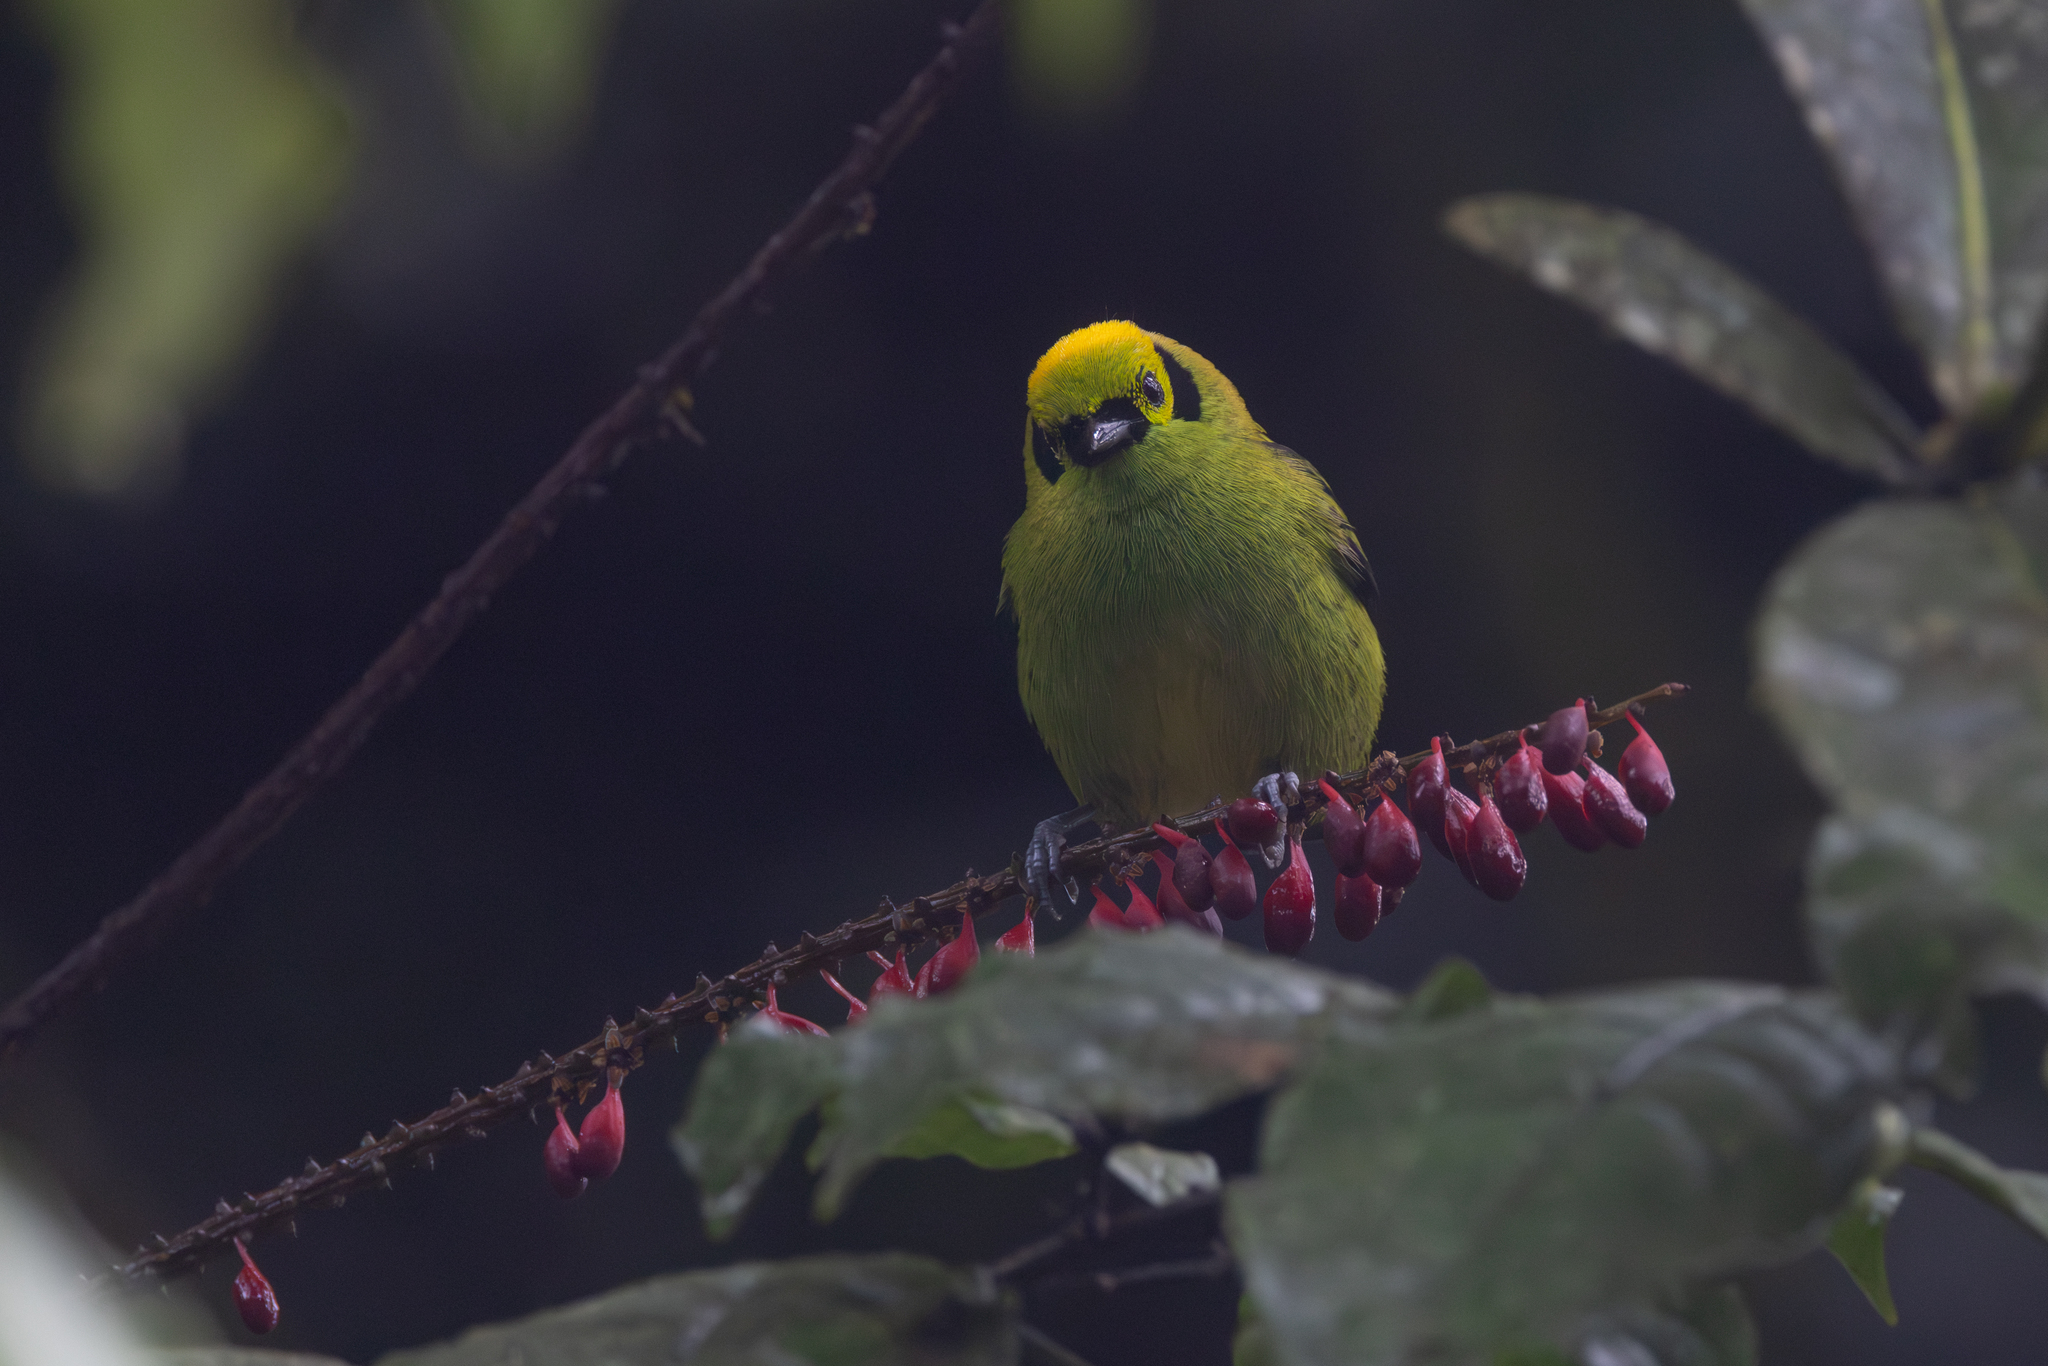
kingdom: Animalia
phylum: Chordata
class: Aves
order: Passeriformes
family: Thraupidae
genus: Tangara
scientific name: Tangara florida
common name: Emerald tanager
